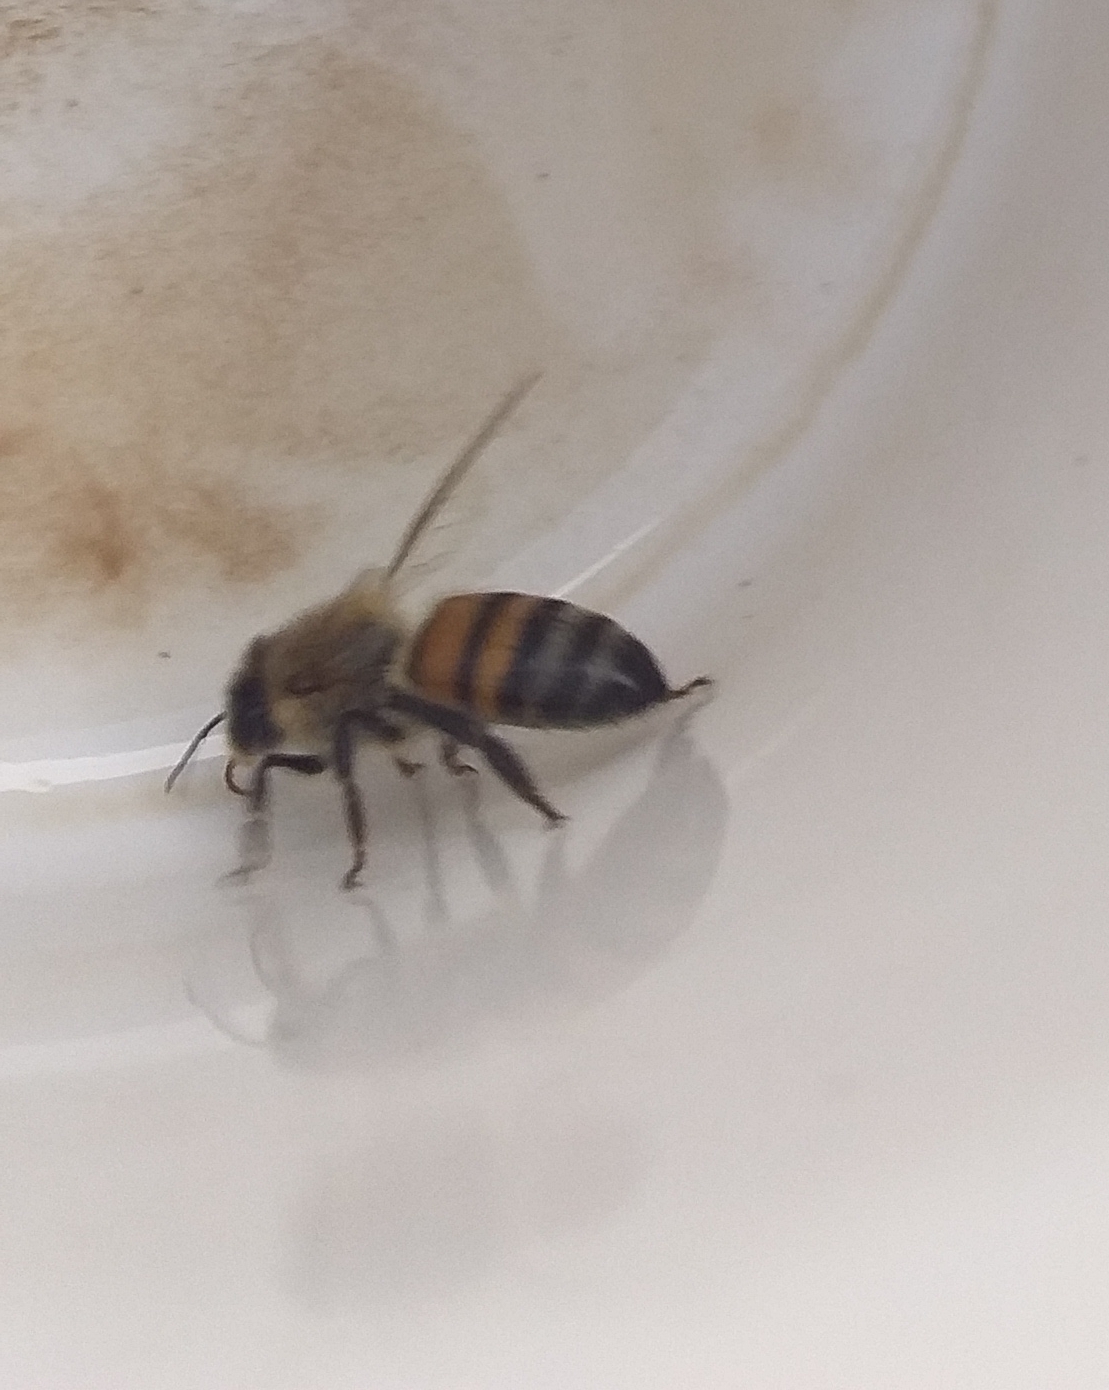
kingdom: Animalia
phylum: Arthropoda
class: Insecta
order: Hymenoptera
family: Apidae
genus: Apis
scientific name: Apis mellifera
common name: Honey bee
